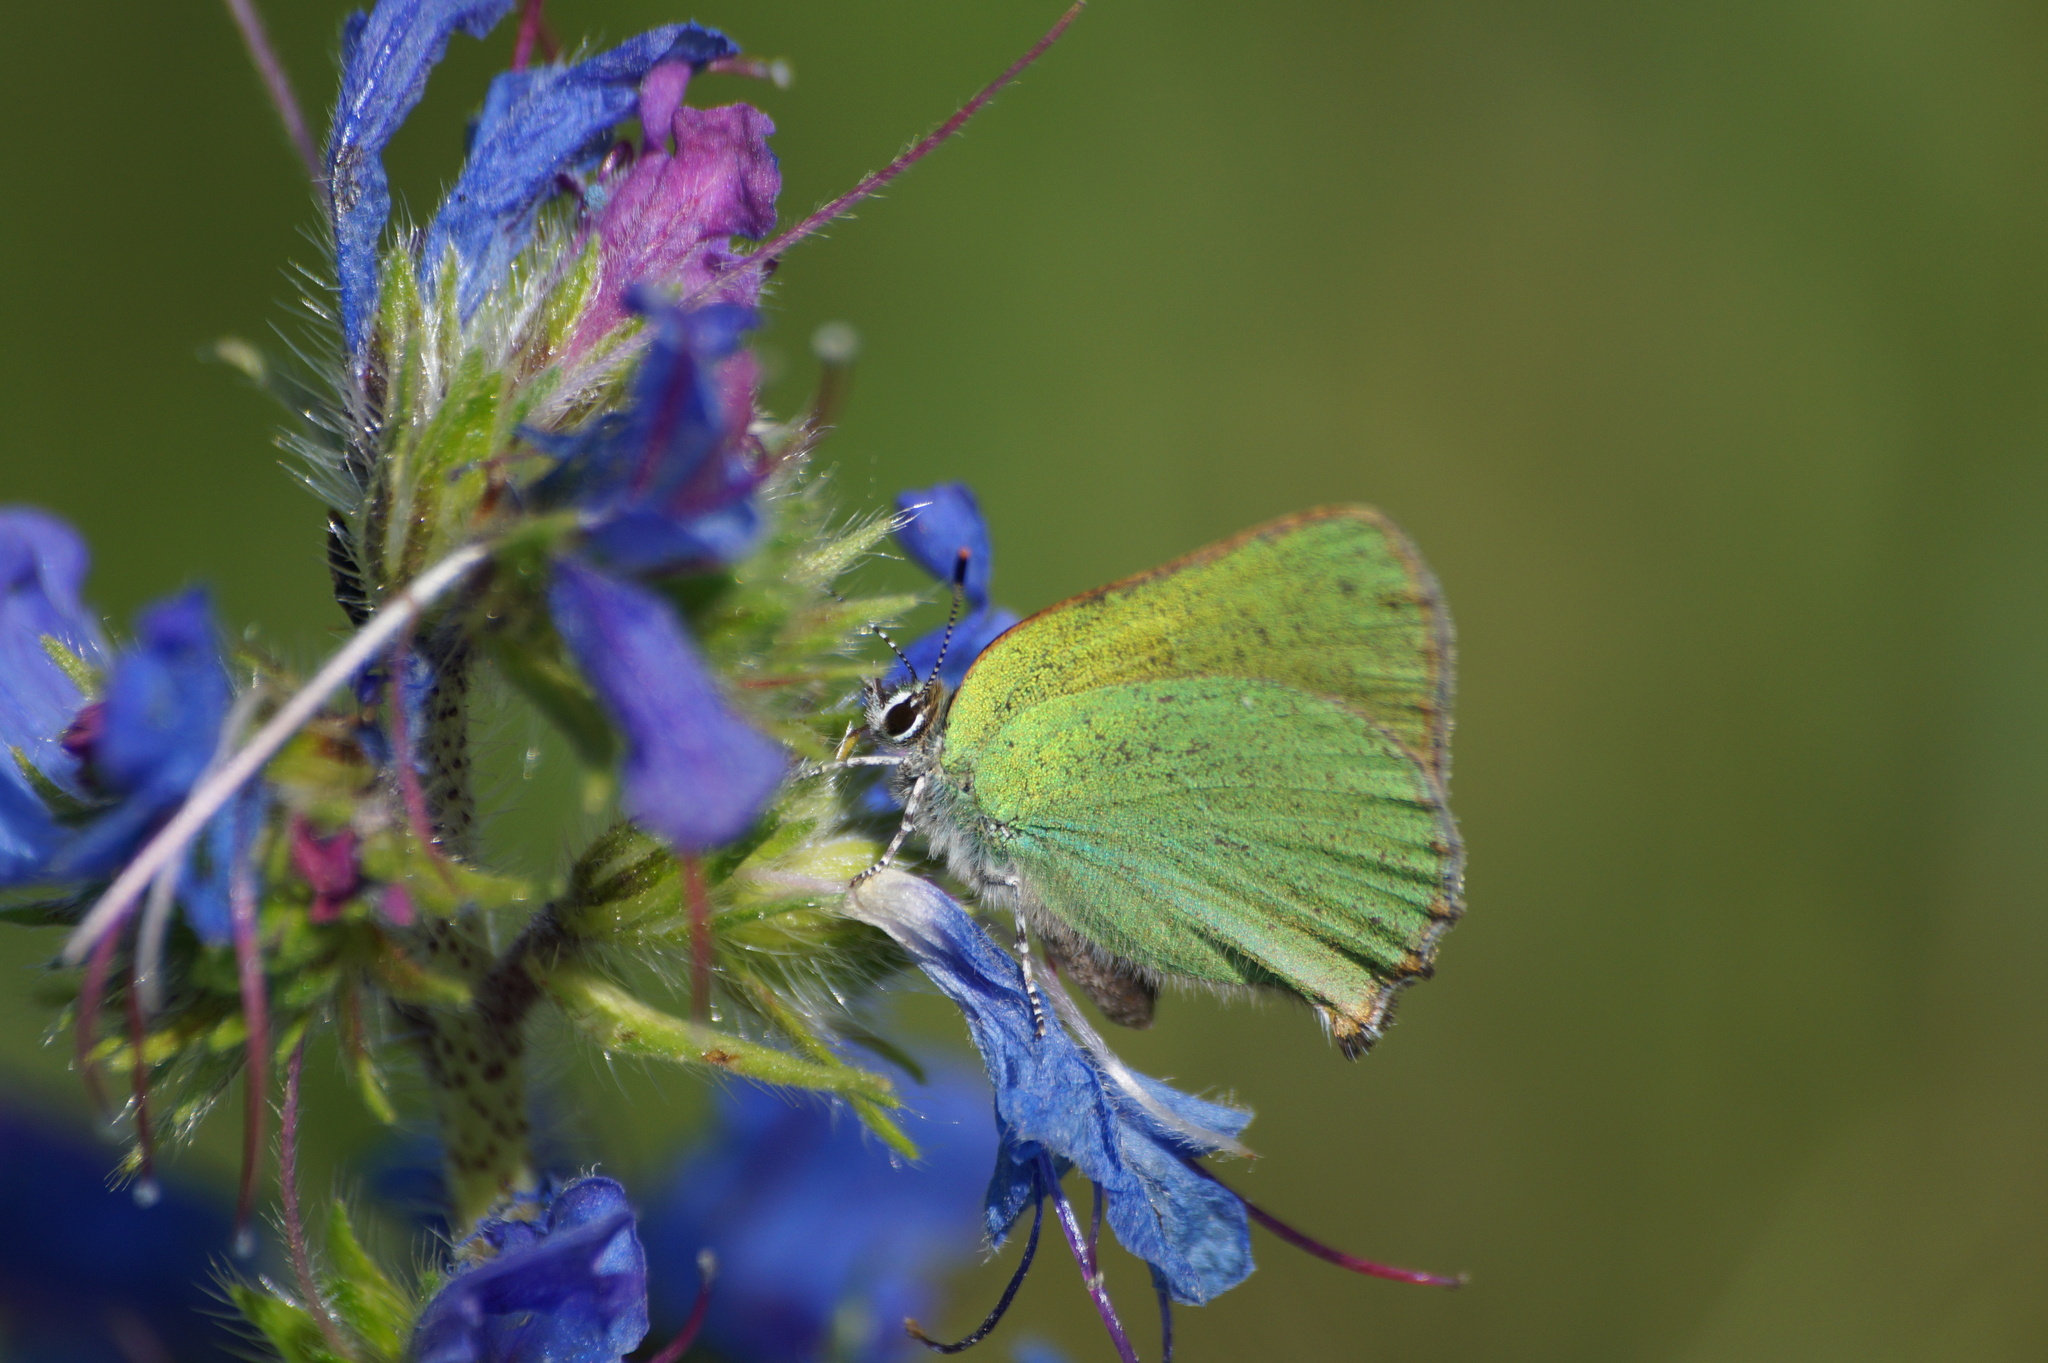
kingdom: Animalia
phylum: Arthropoda
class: Insecta
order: Lepidoptera
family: Lycaenidae
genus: Callophrys
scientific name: Callophrys rubi
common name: Green hairstreak
